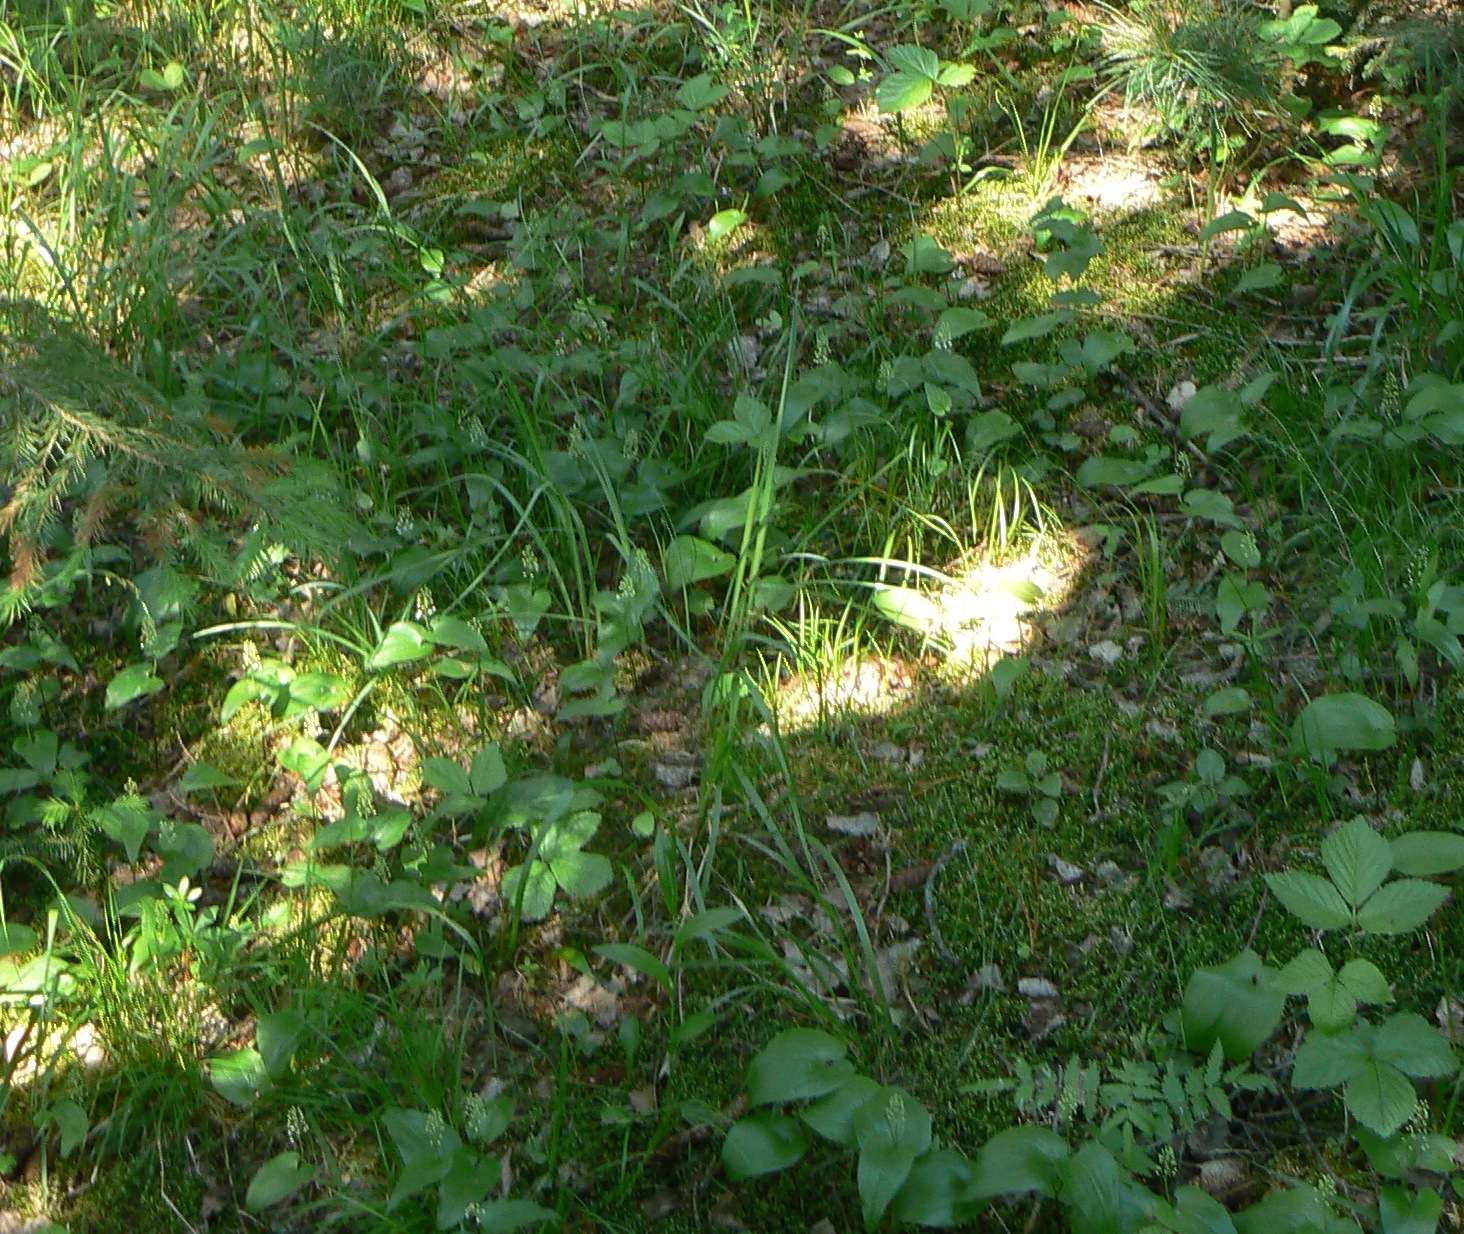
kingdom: Plantae
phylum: Tracheophyta
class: Liliopsida
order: Asparagales
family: Asparagaceae
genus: Maianthemum
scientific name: Maianthemum bifolium
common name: May lily
